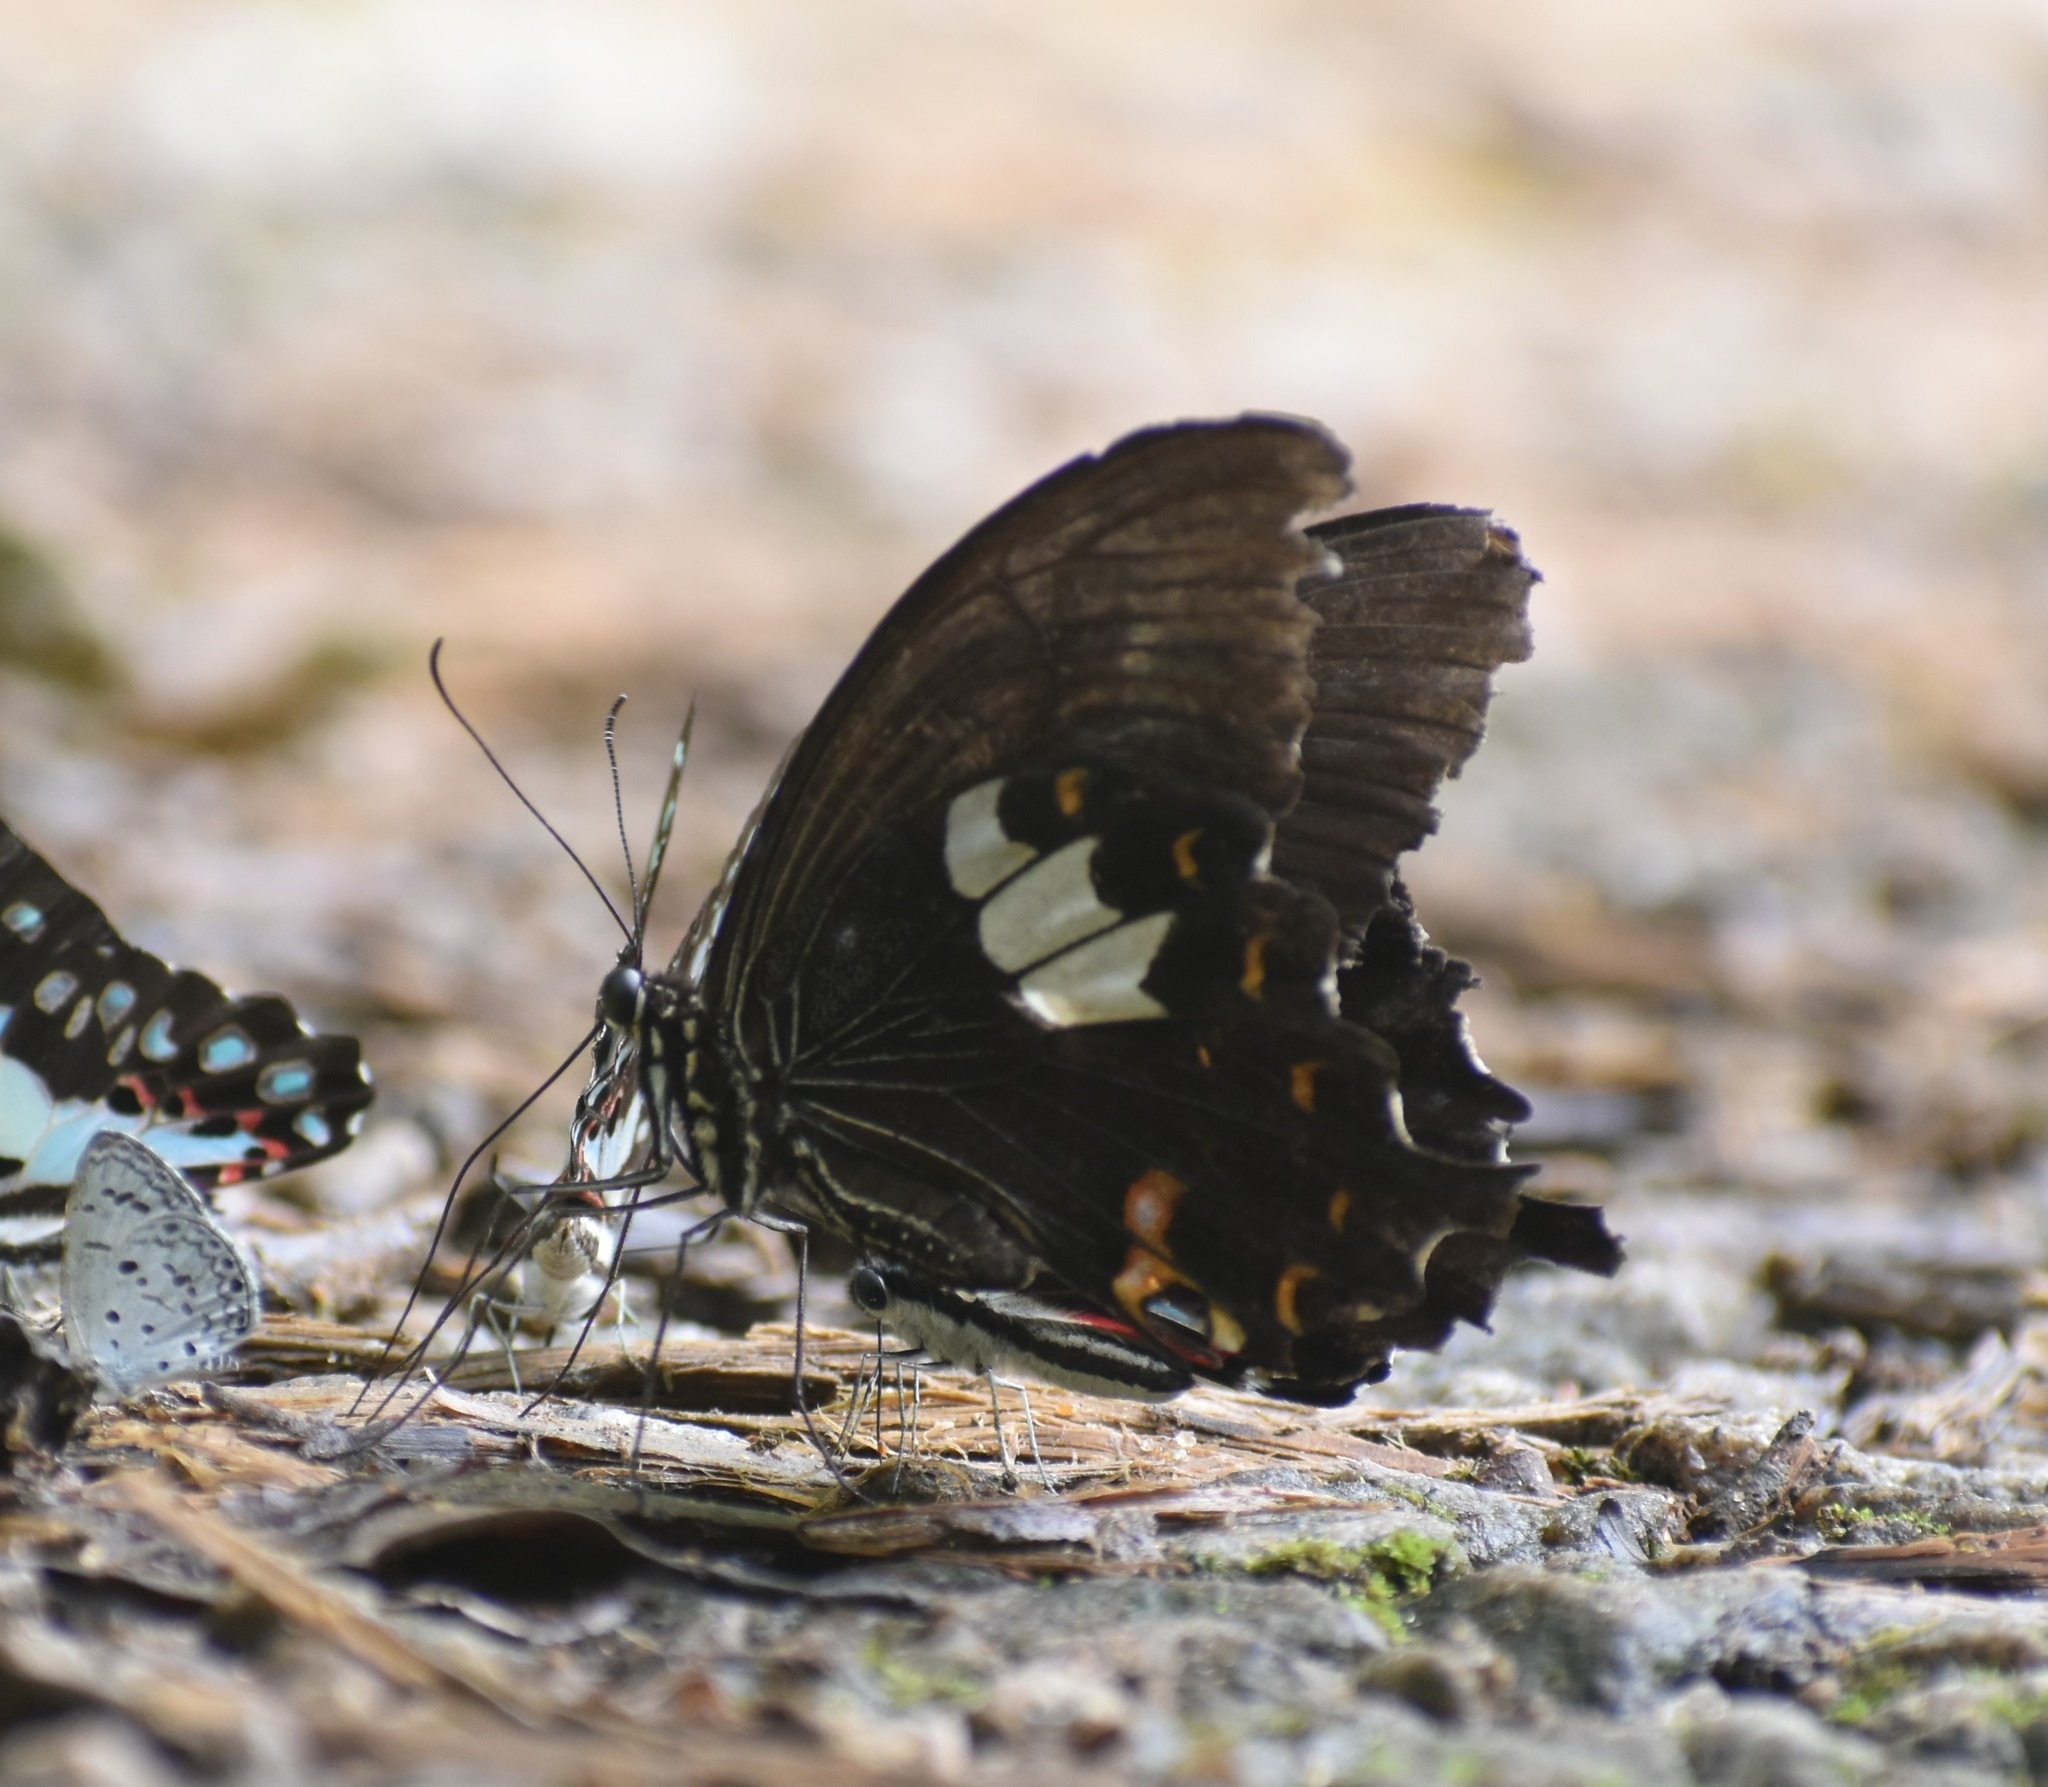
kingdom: Animalia
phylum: Arthropoda
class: Insecta
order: Lepidoptera
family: Papilionidae
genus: Papilio
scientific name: Papilio helenus
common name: Red helen
